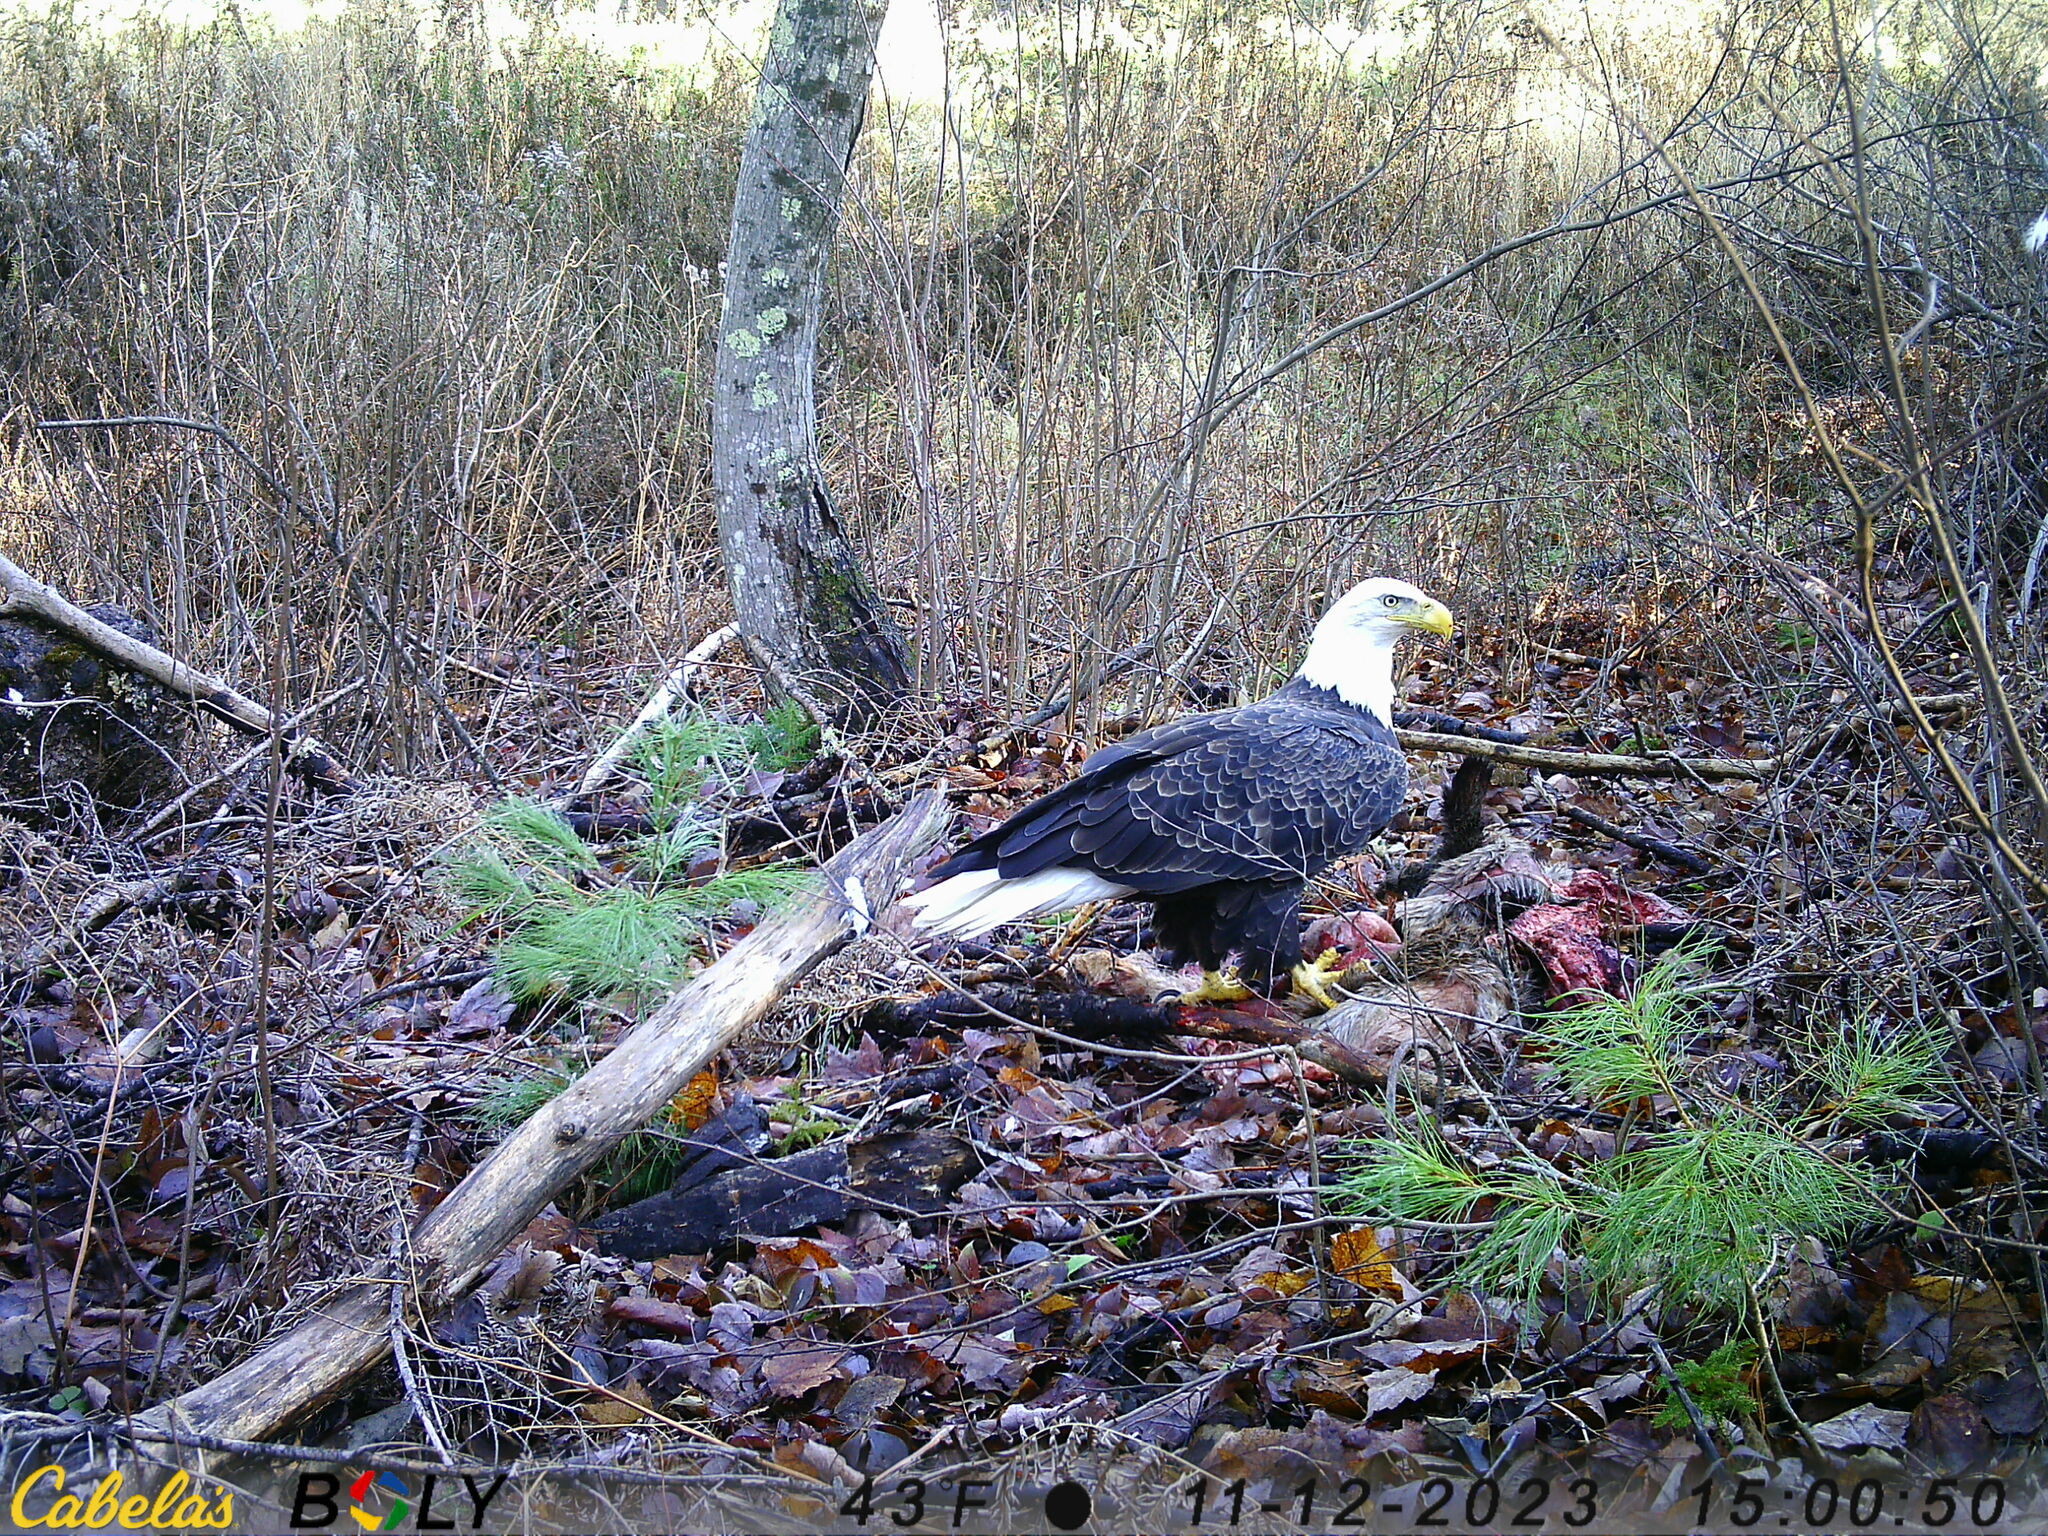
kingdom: Animalia
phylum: Chordata
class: Aves
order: Accipitriformes
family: Accipitridae
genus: Haliaeetus
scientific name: Haliaeetus leucocephalus
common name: Bald eagle
